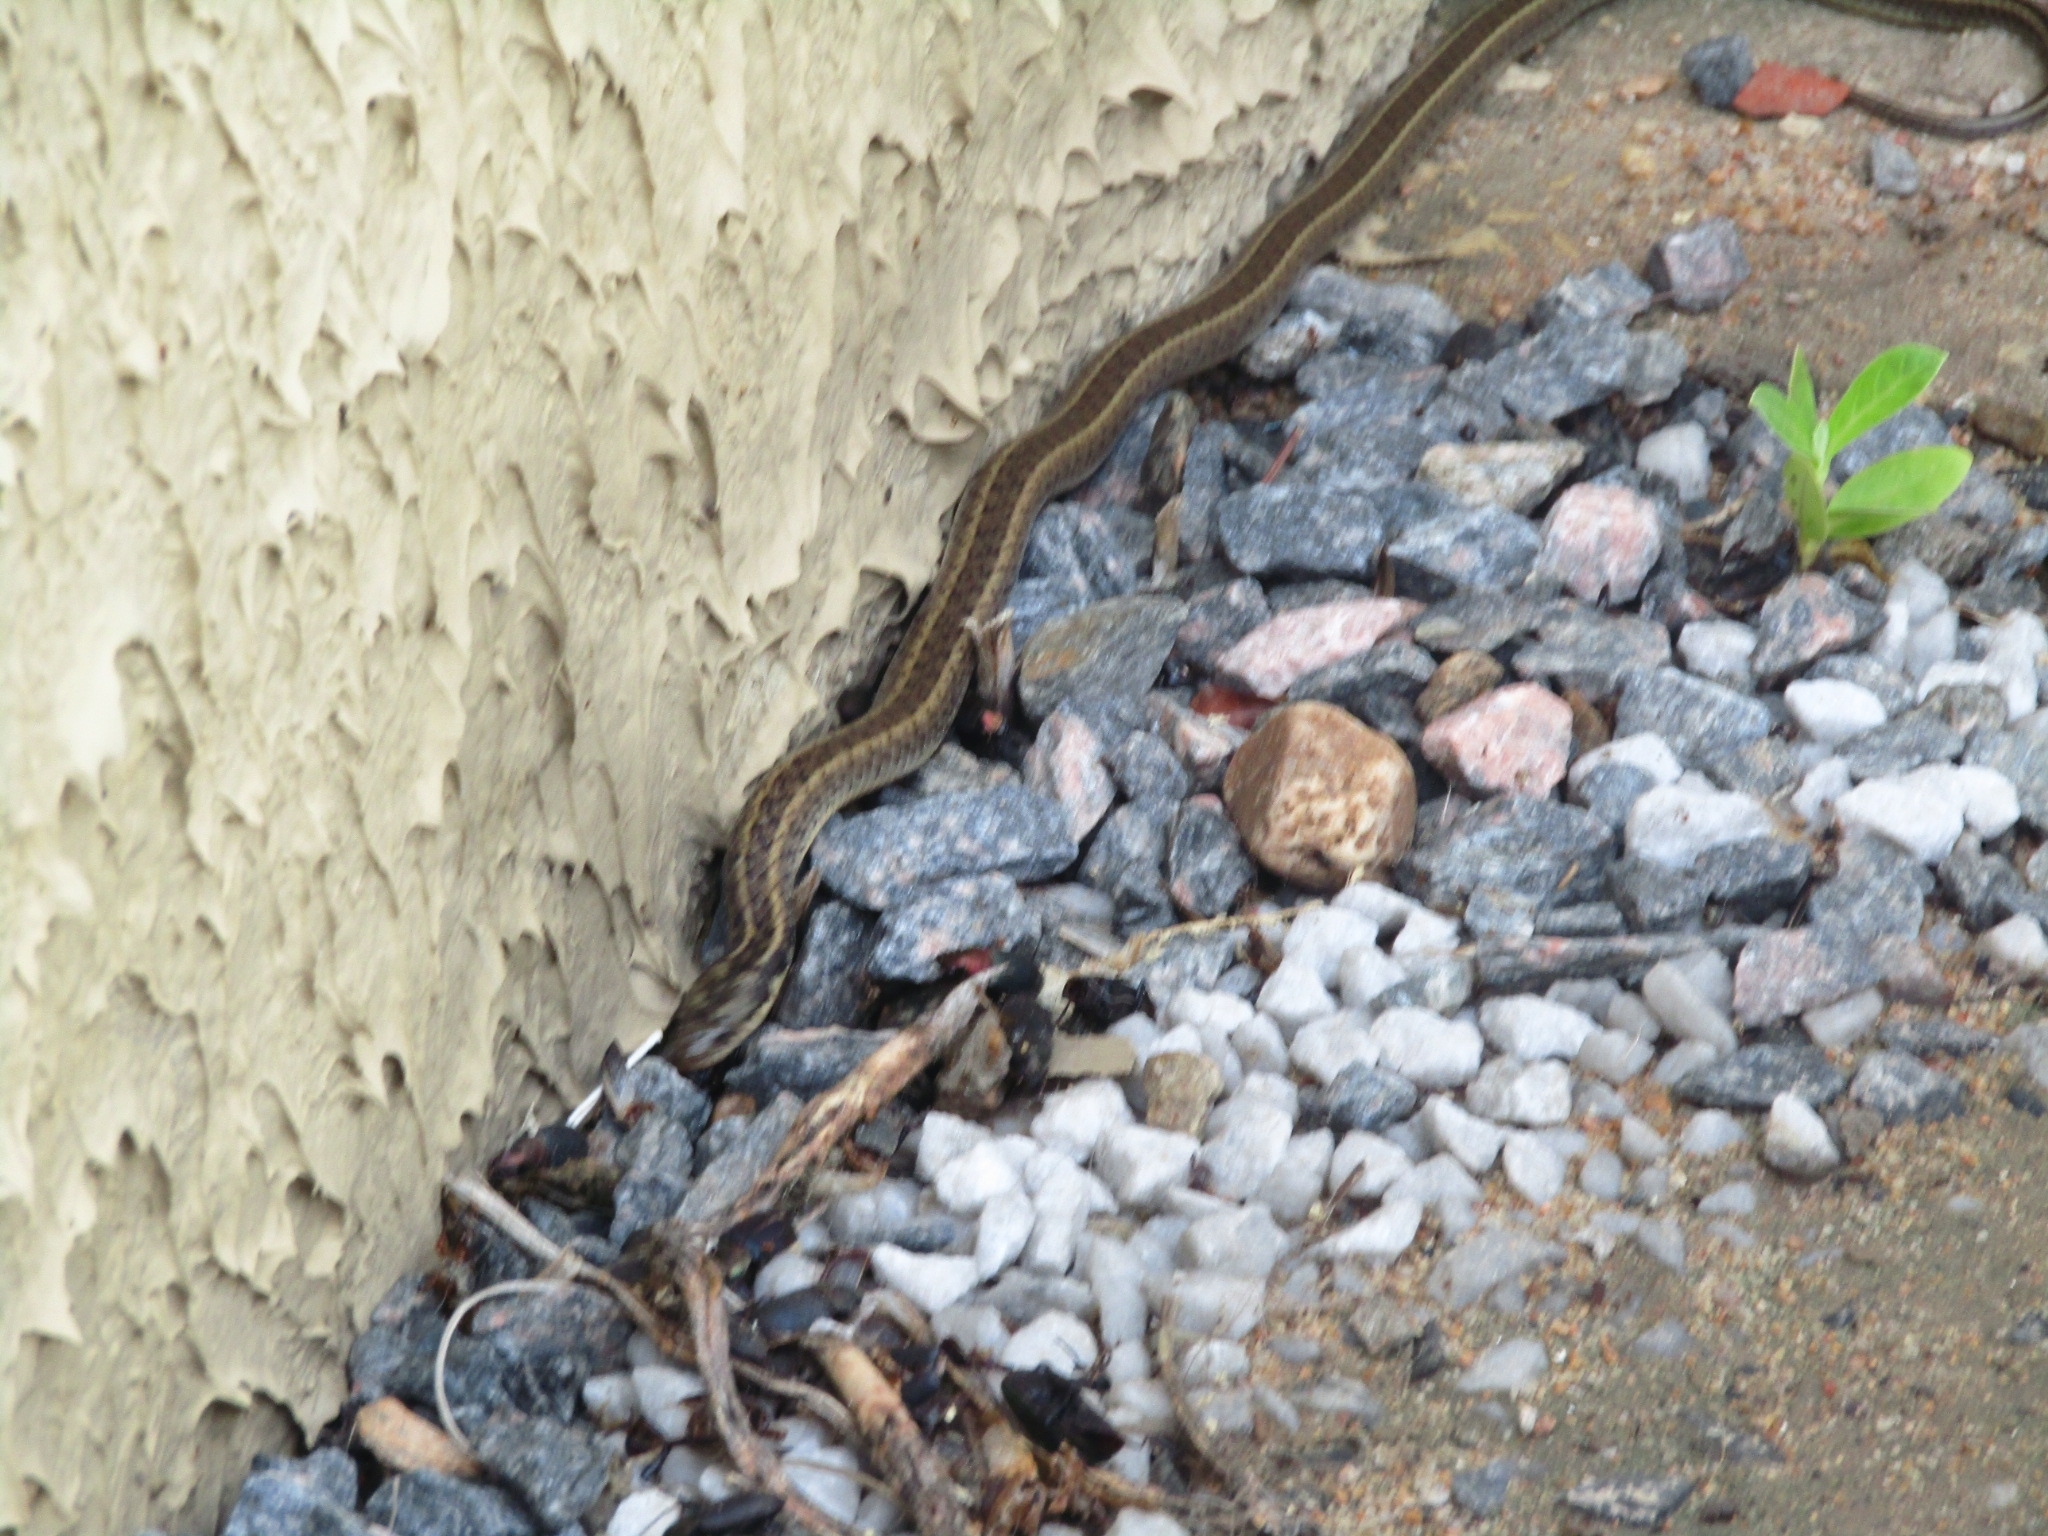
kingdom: Animalia
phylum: Chordata
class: Squamata
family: Colubridae
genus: Erythrolamprus
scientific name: Erythrolamprus mossoroensis
